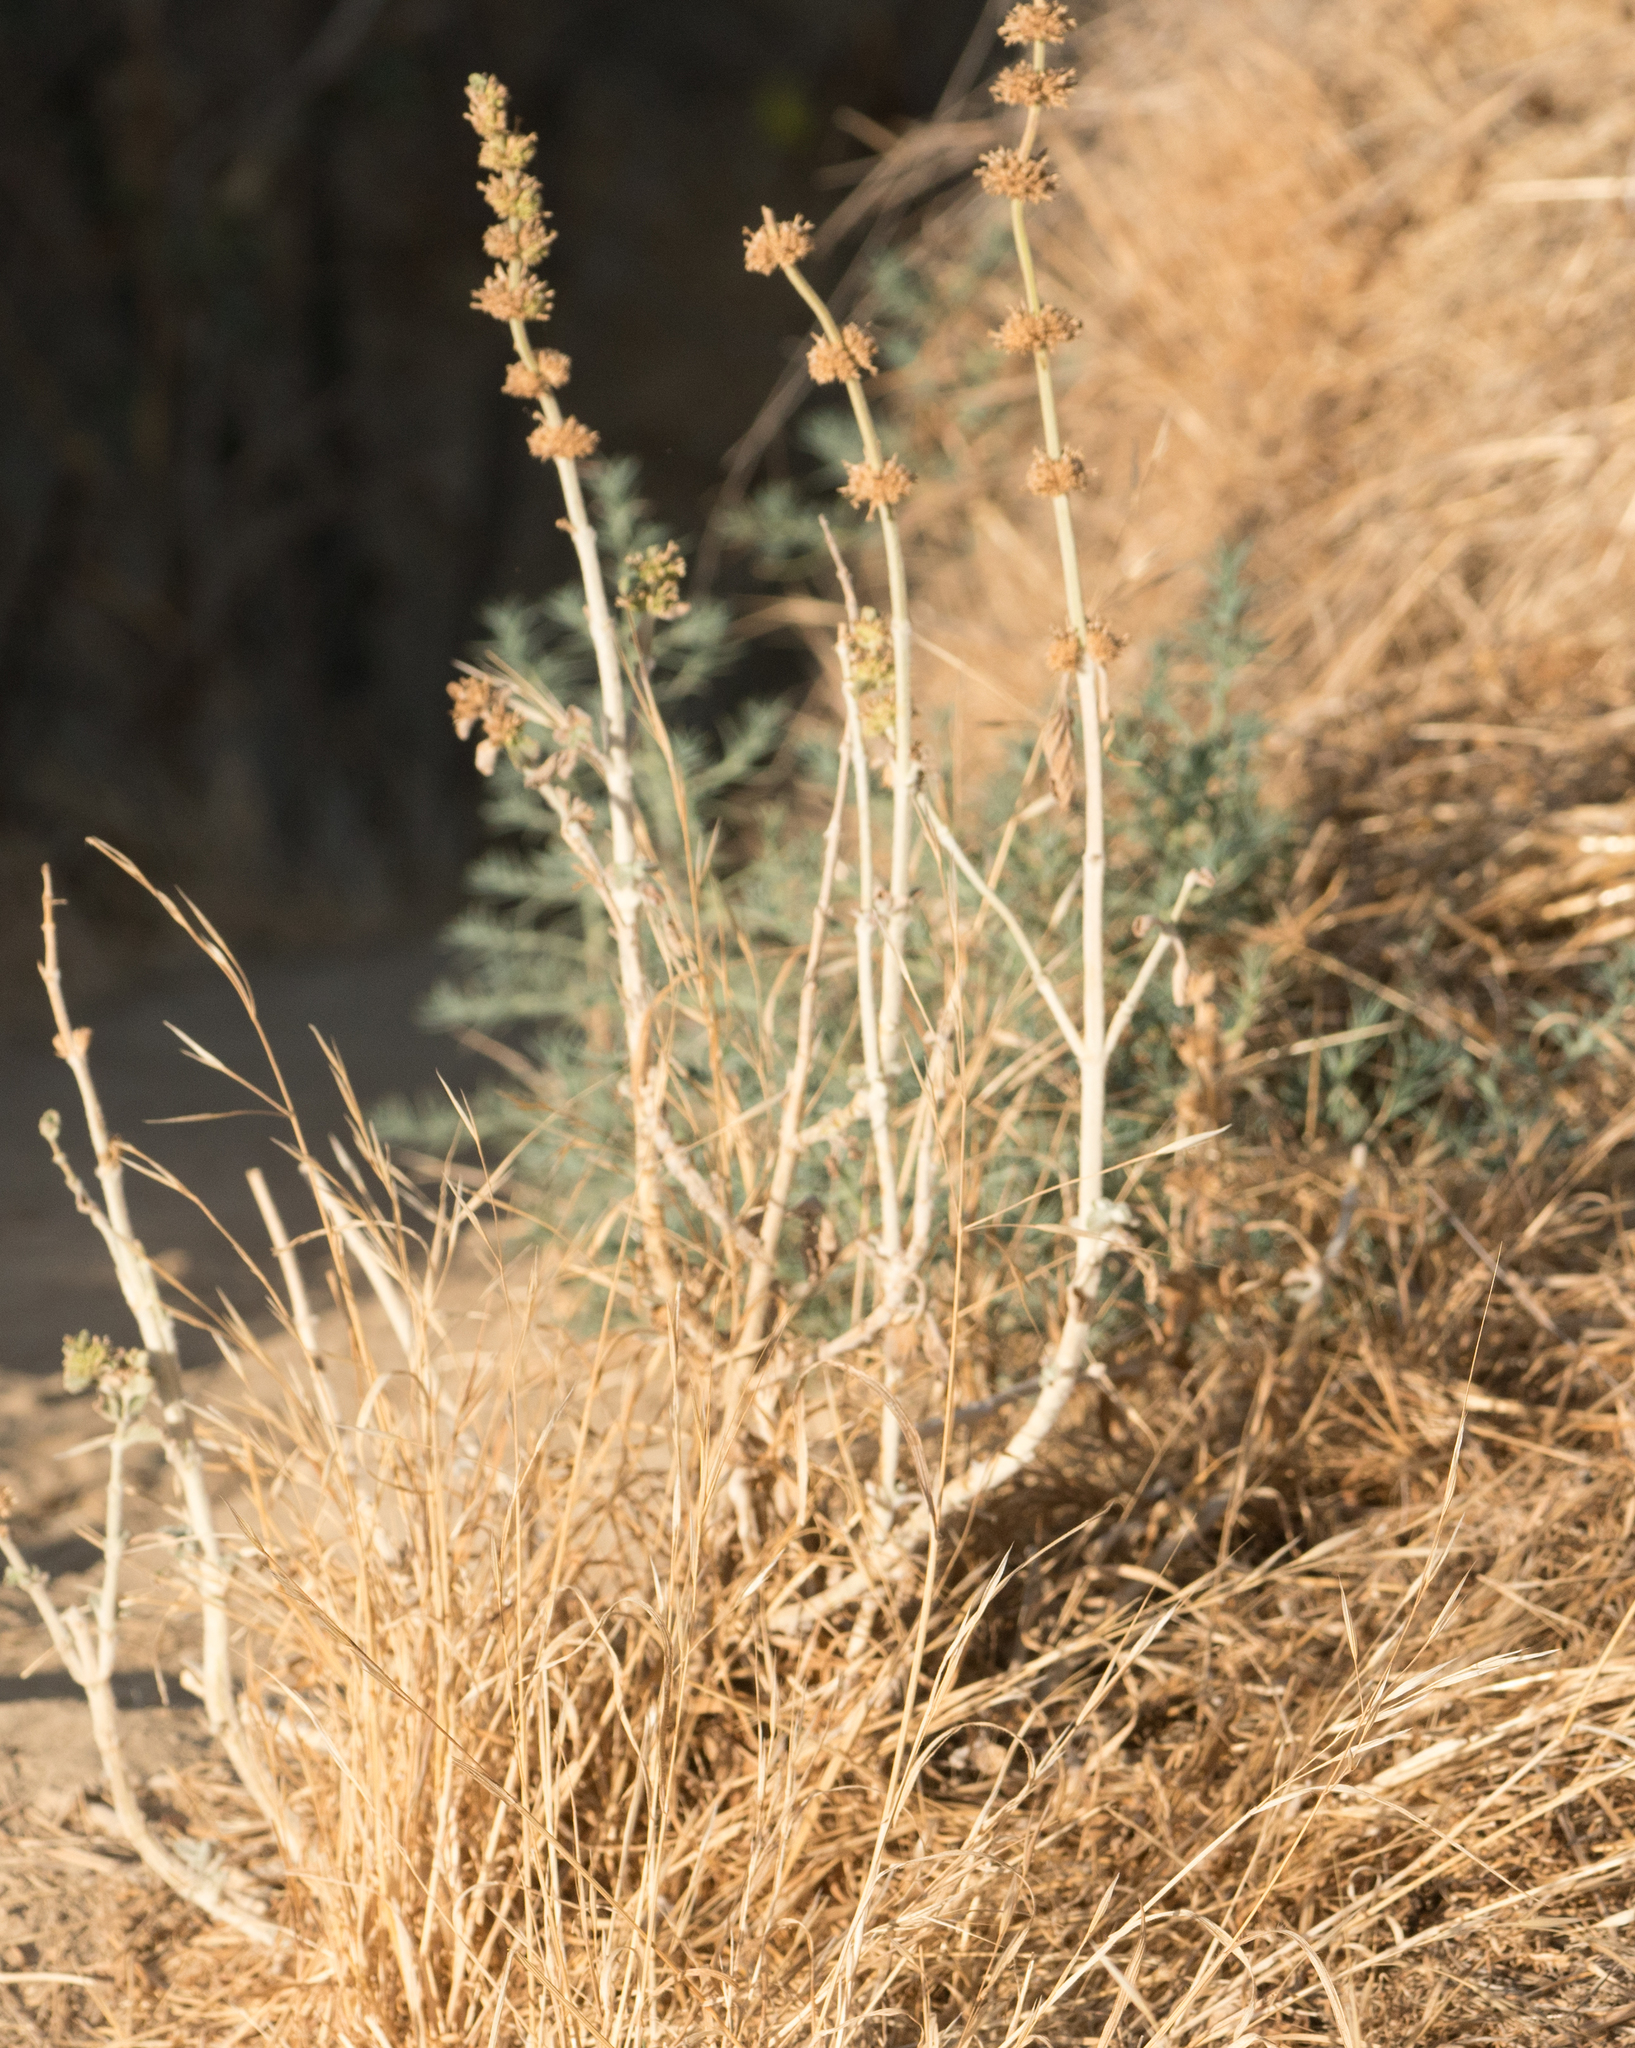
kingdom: Plantae
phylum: Tracheophyta
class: Magnoliopsida
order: Lamiales
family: Lamiaceae
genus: Marrubium
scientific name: Marrubium vulgare
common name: Horehound
